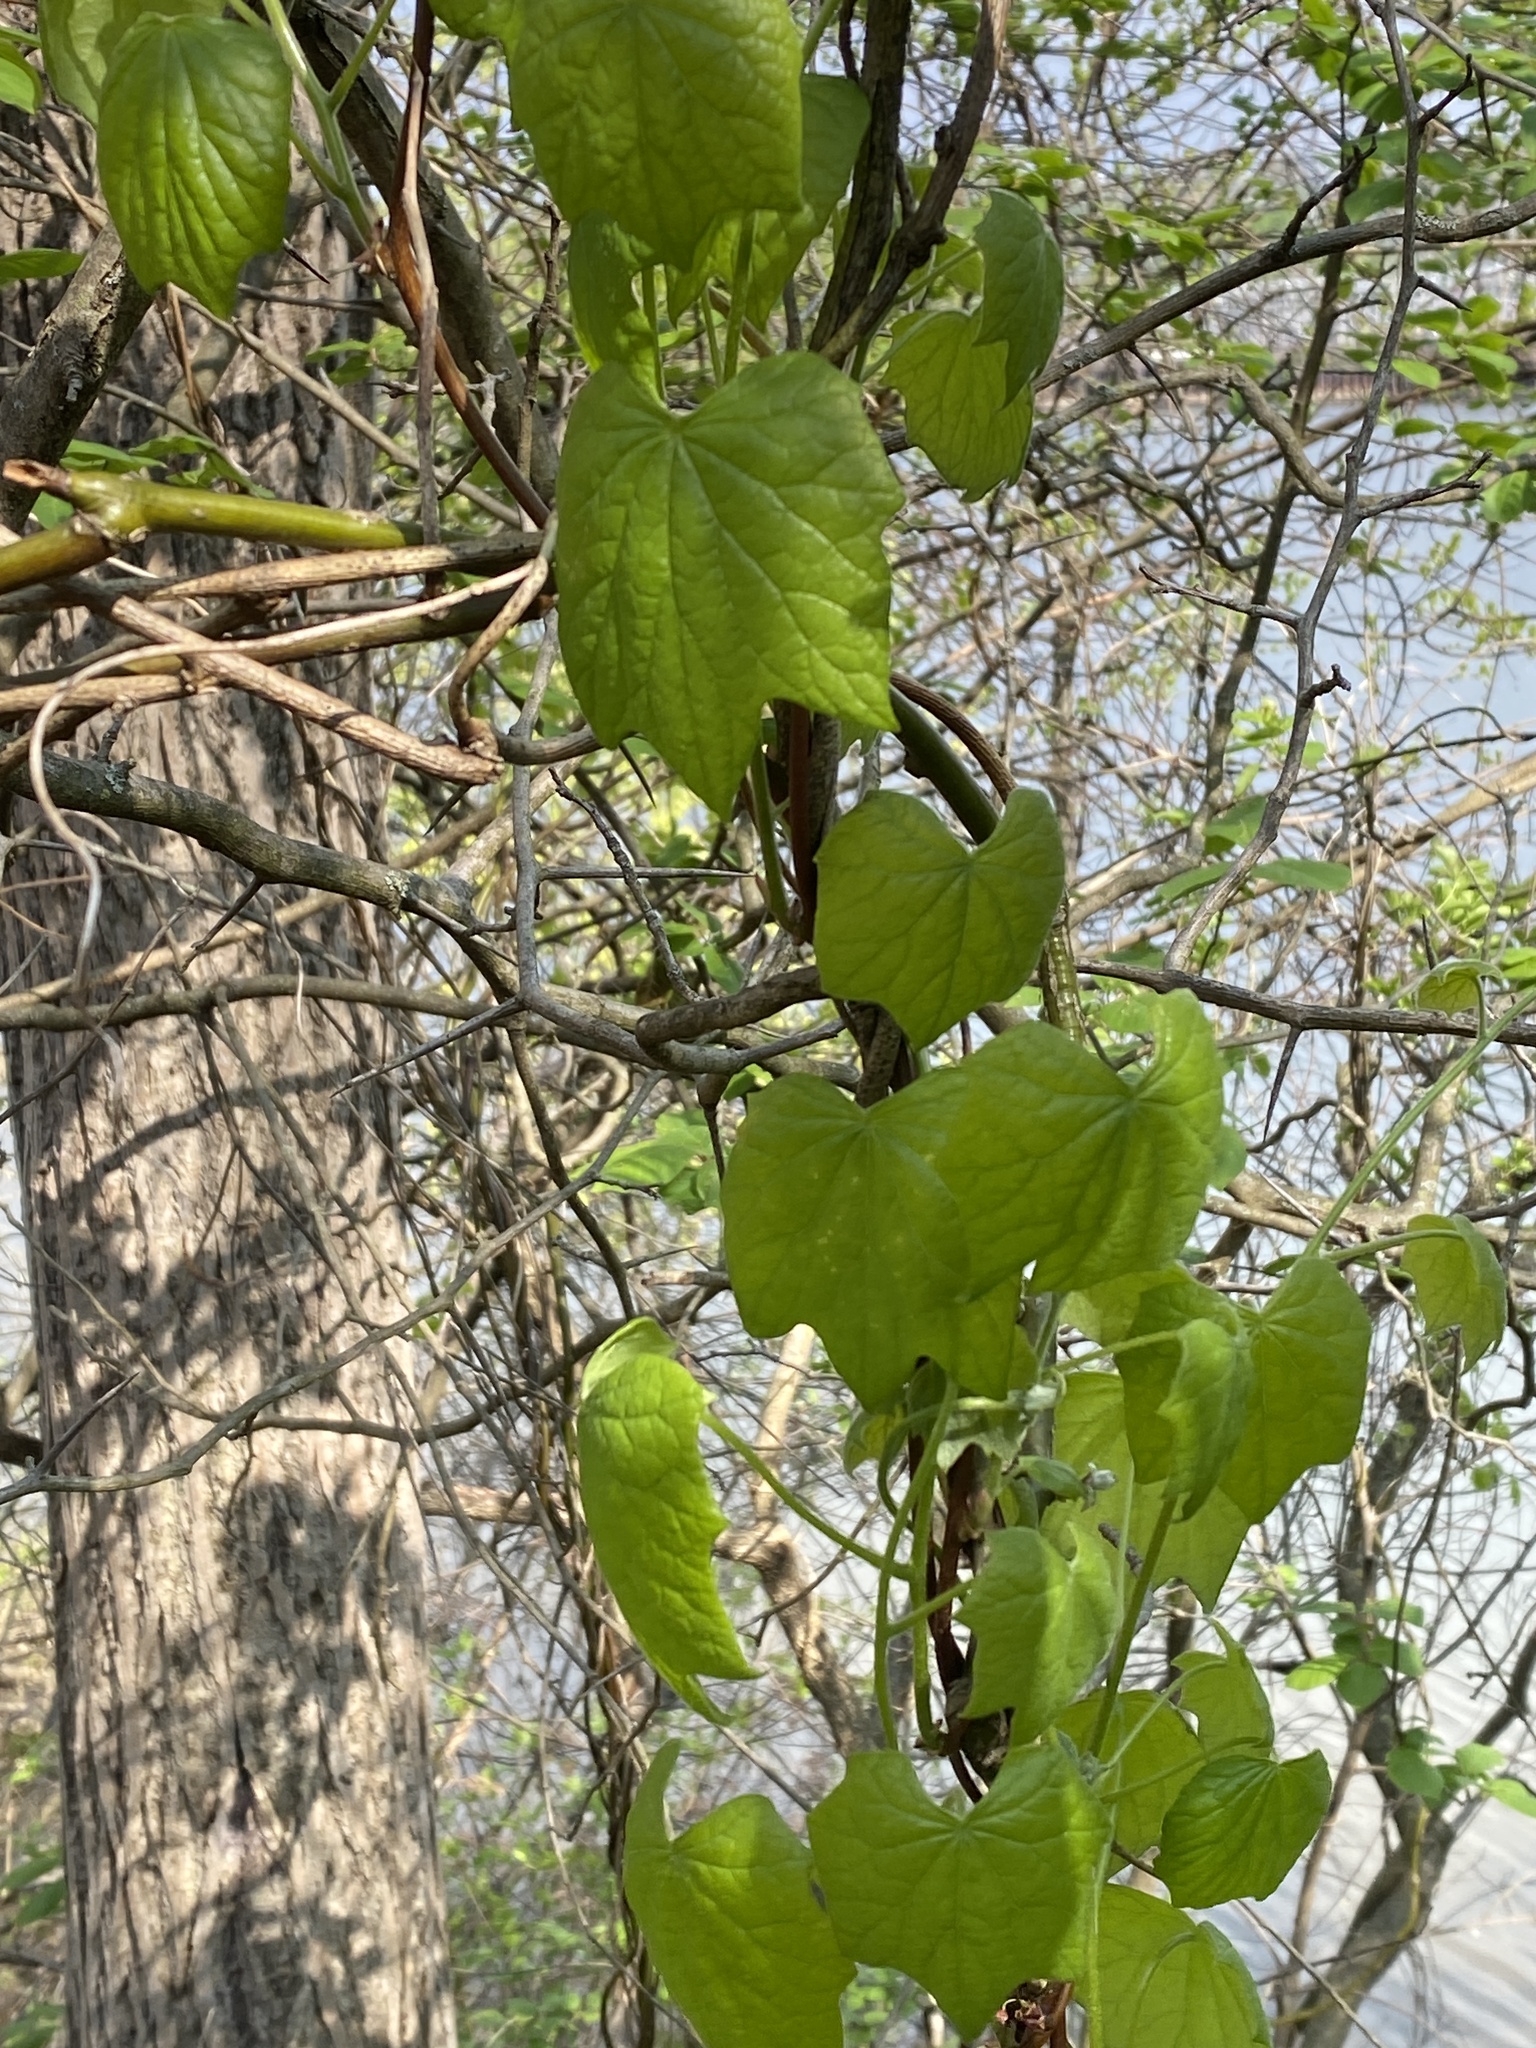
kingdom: Plantae
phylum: Tracheophyta
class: Magnoliopsida
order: Ranunculales
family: Menispermaceae
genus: Menispermum
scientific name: Menispermum canadense
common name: Moonseed
